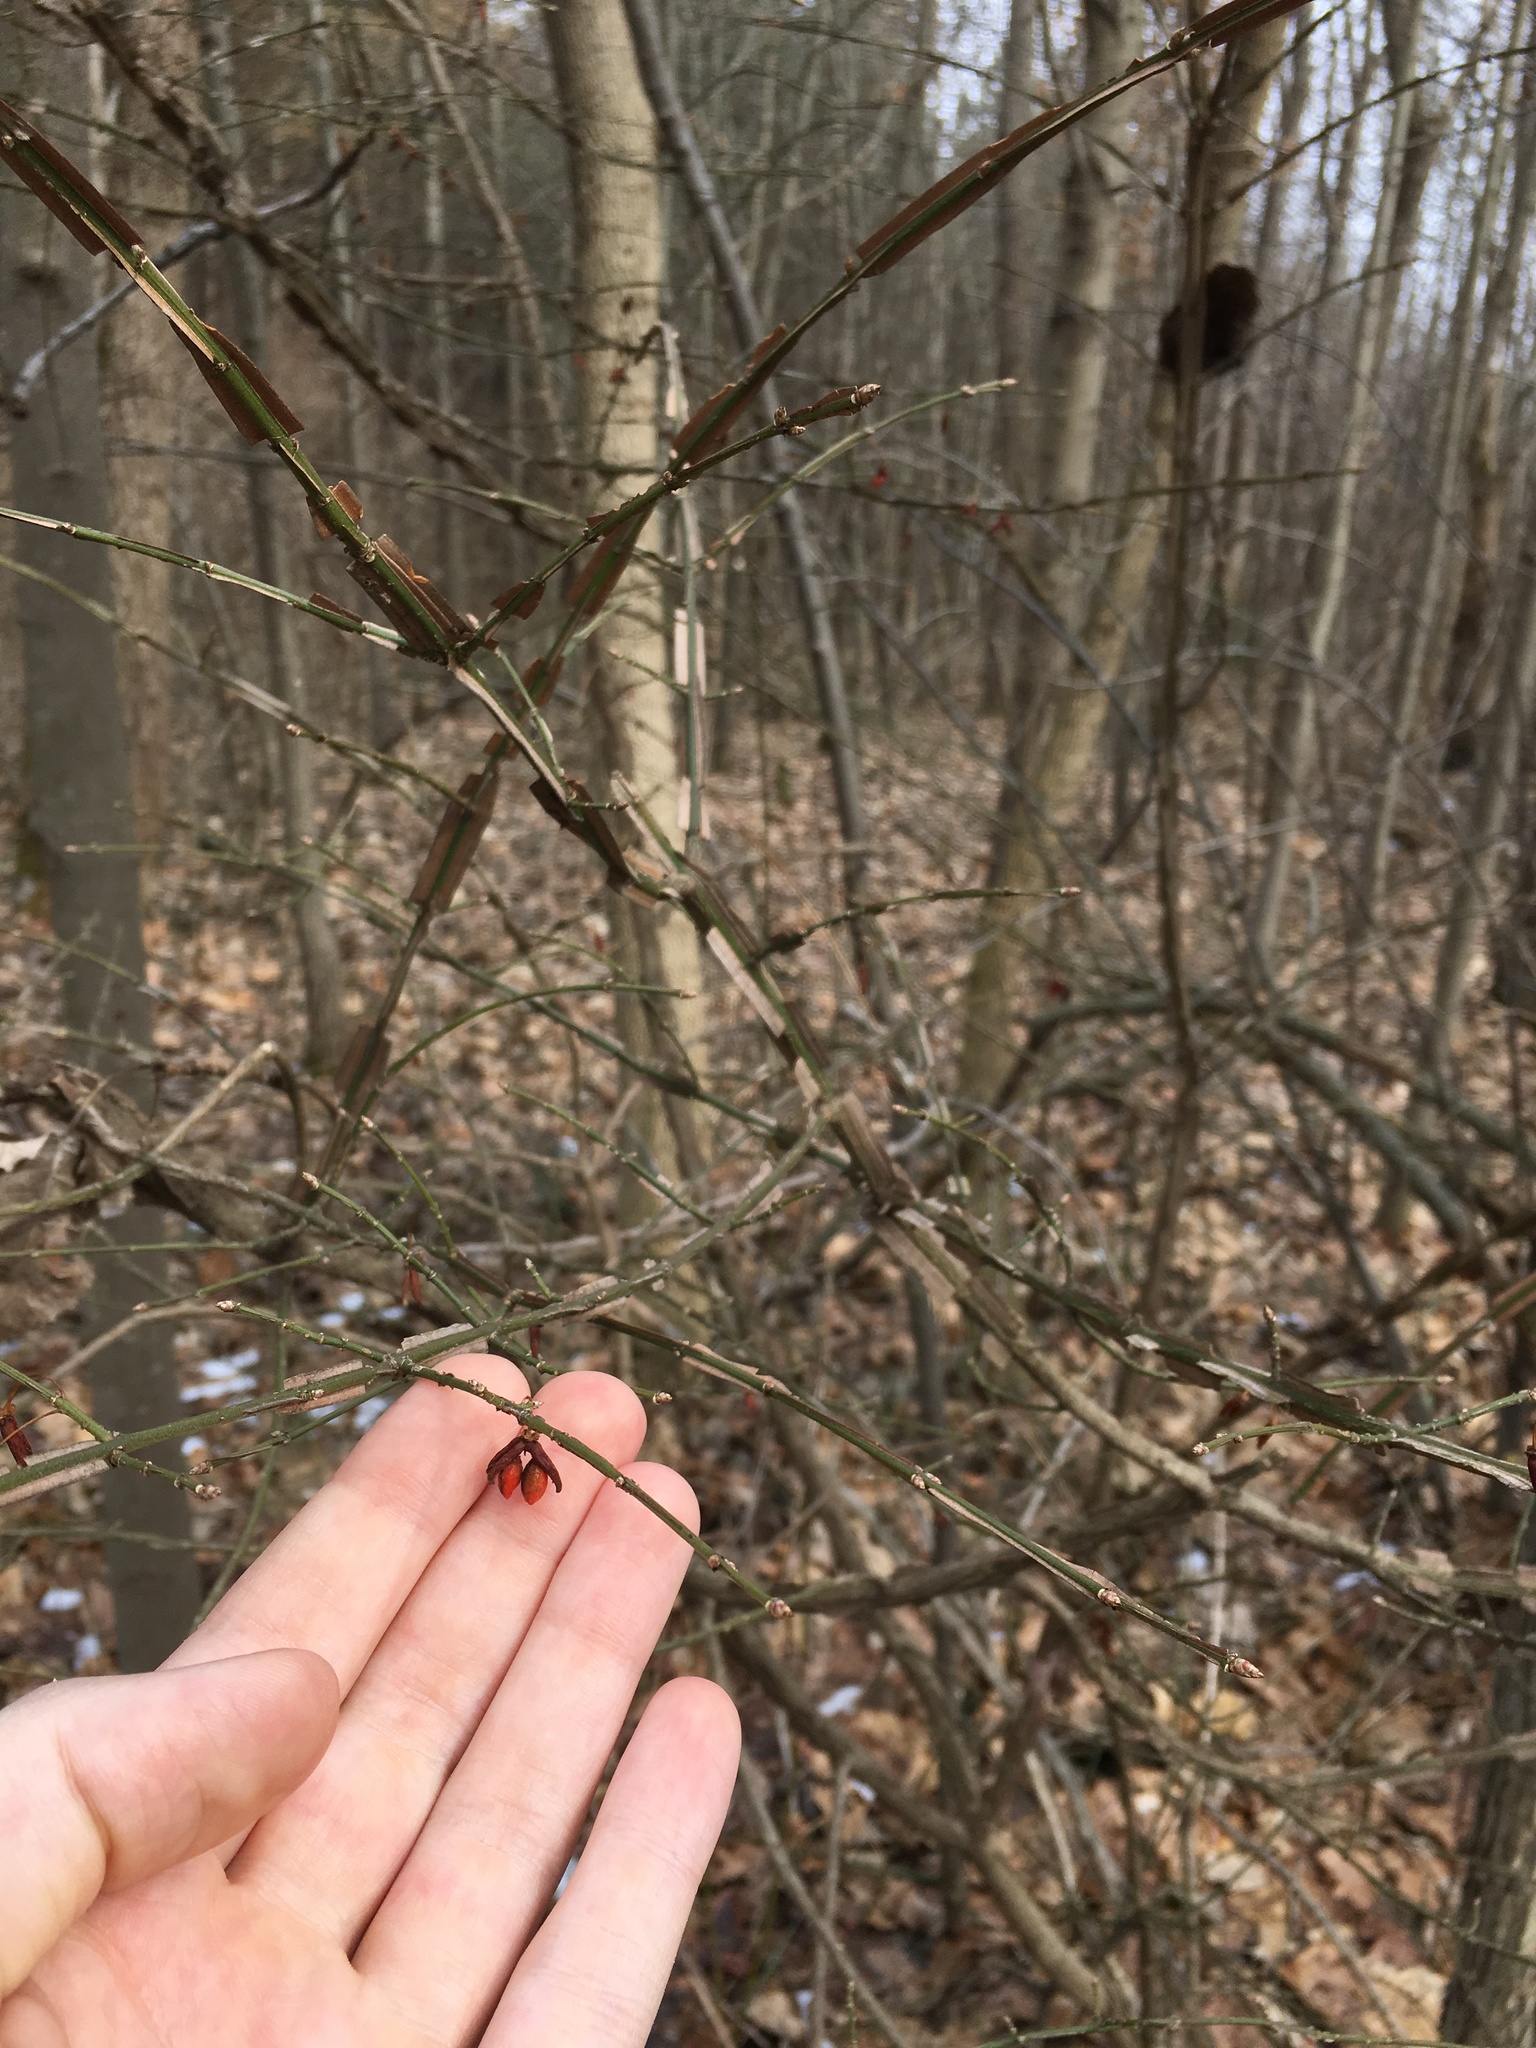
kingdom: Plantae
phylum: Tracheophyta
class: Magnoliopsida
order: Celastrales
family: Celastraceae
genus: Euonymus
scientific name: Euonymus alatus
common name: Winged euonymus
